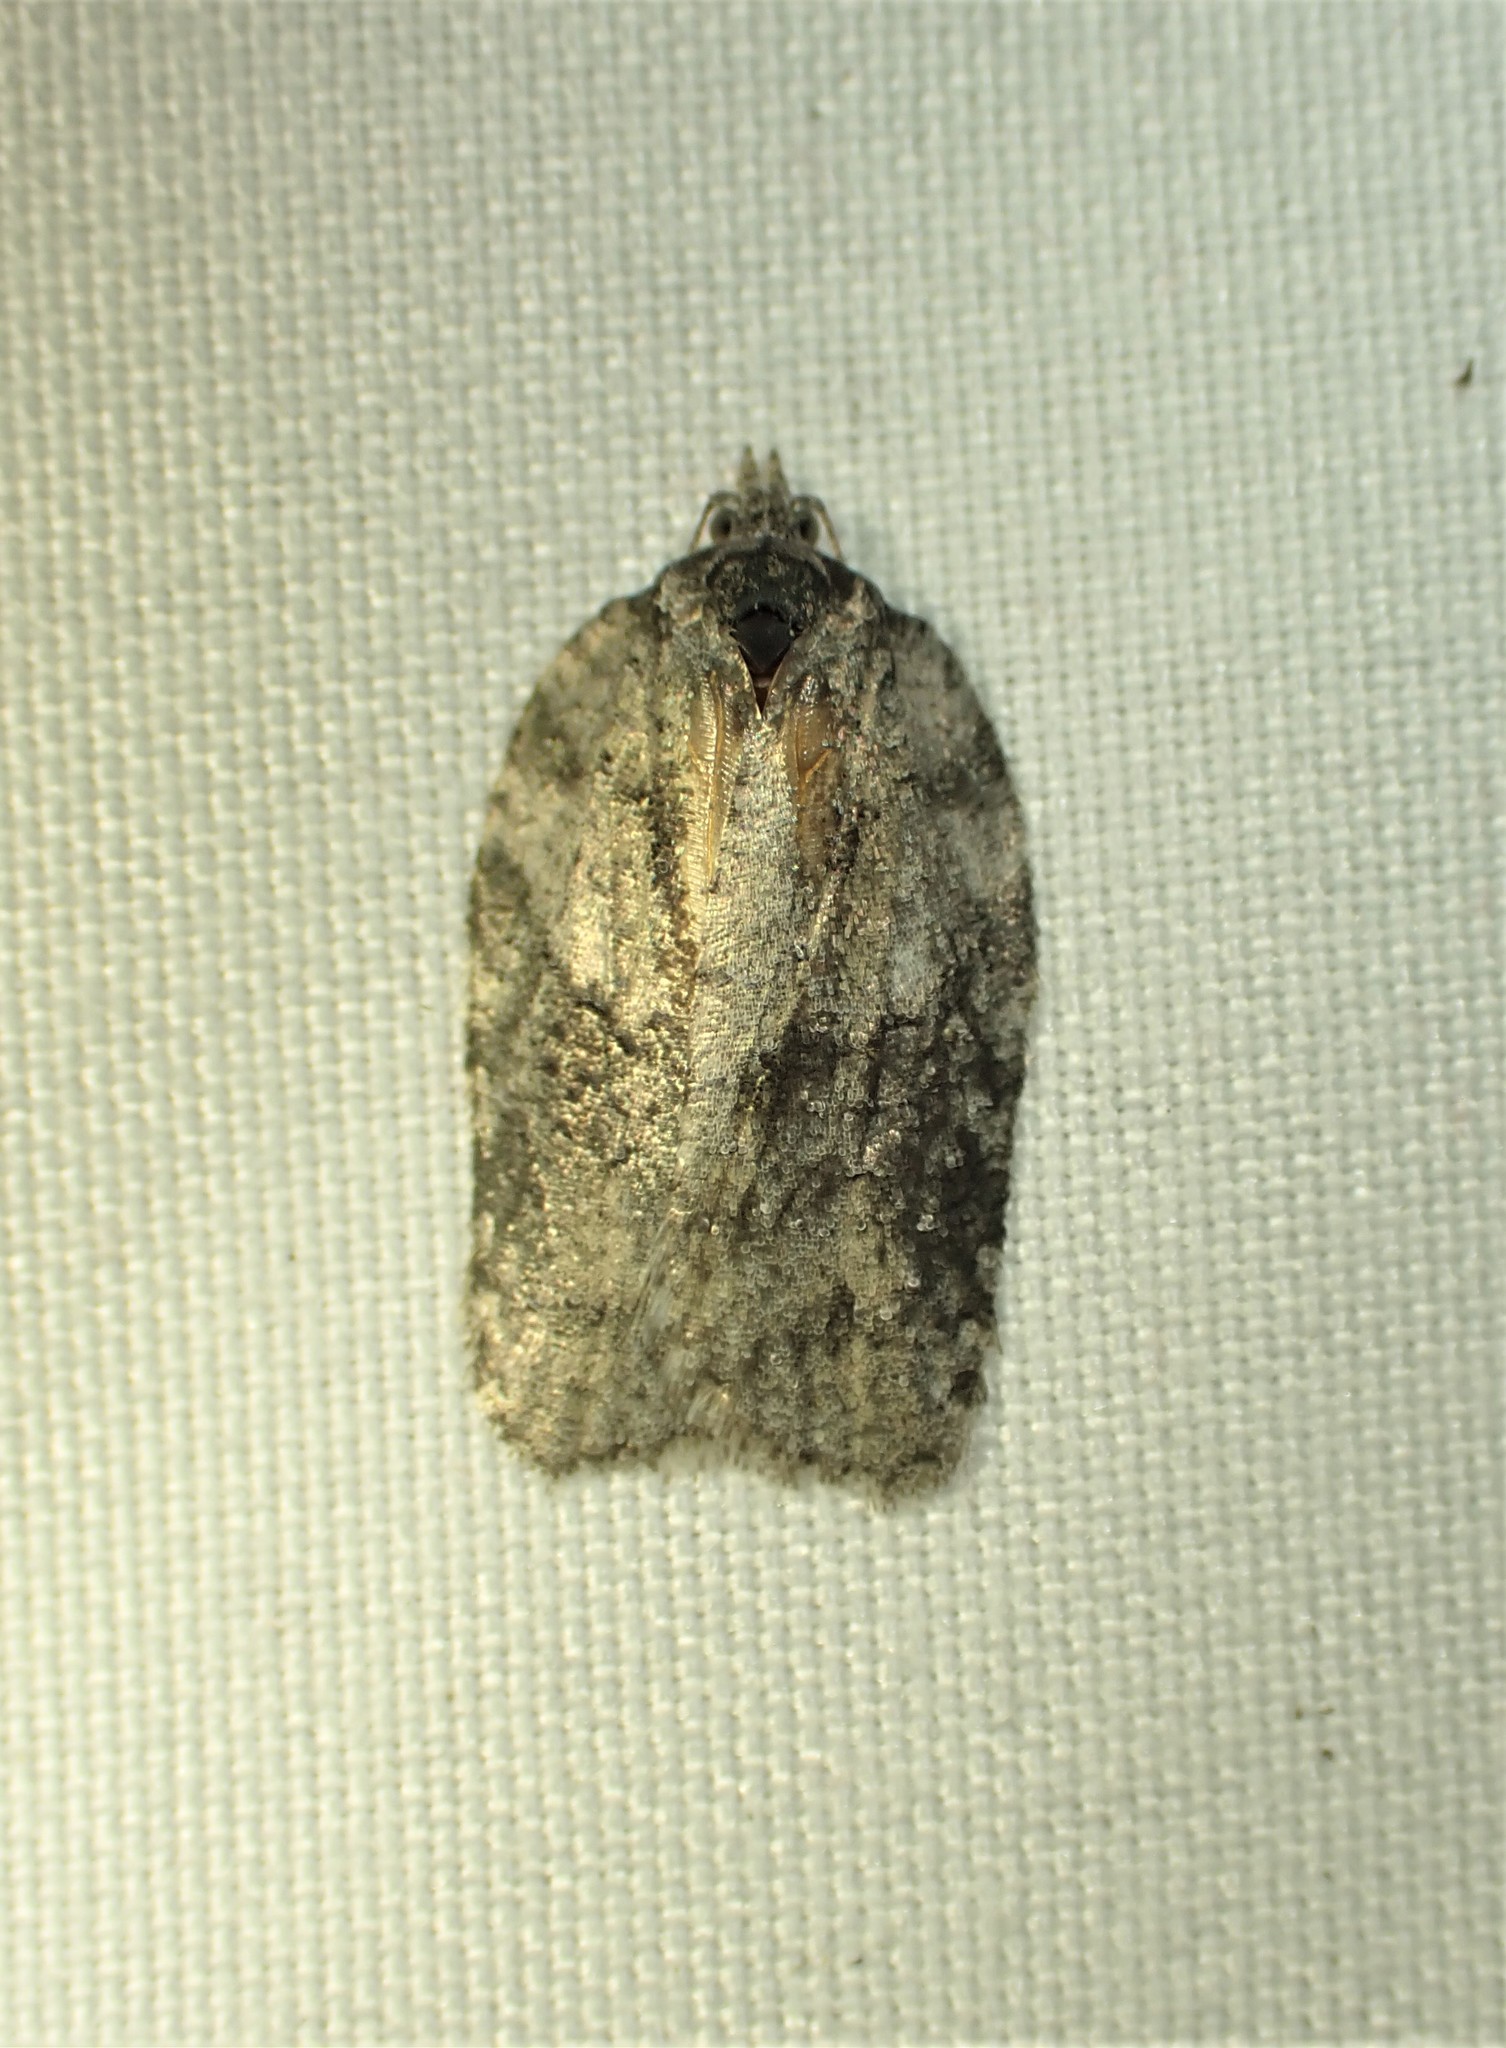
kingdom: Animalia
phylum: Arthropoda
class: Insecta
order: Lepidoptera
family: Tortricidae
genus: Acleris
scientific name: Acleris nigrolinea
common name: Black-lined acleris
